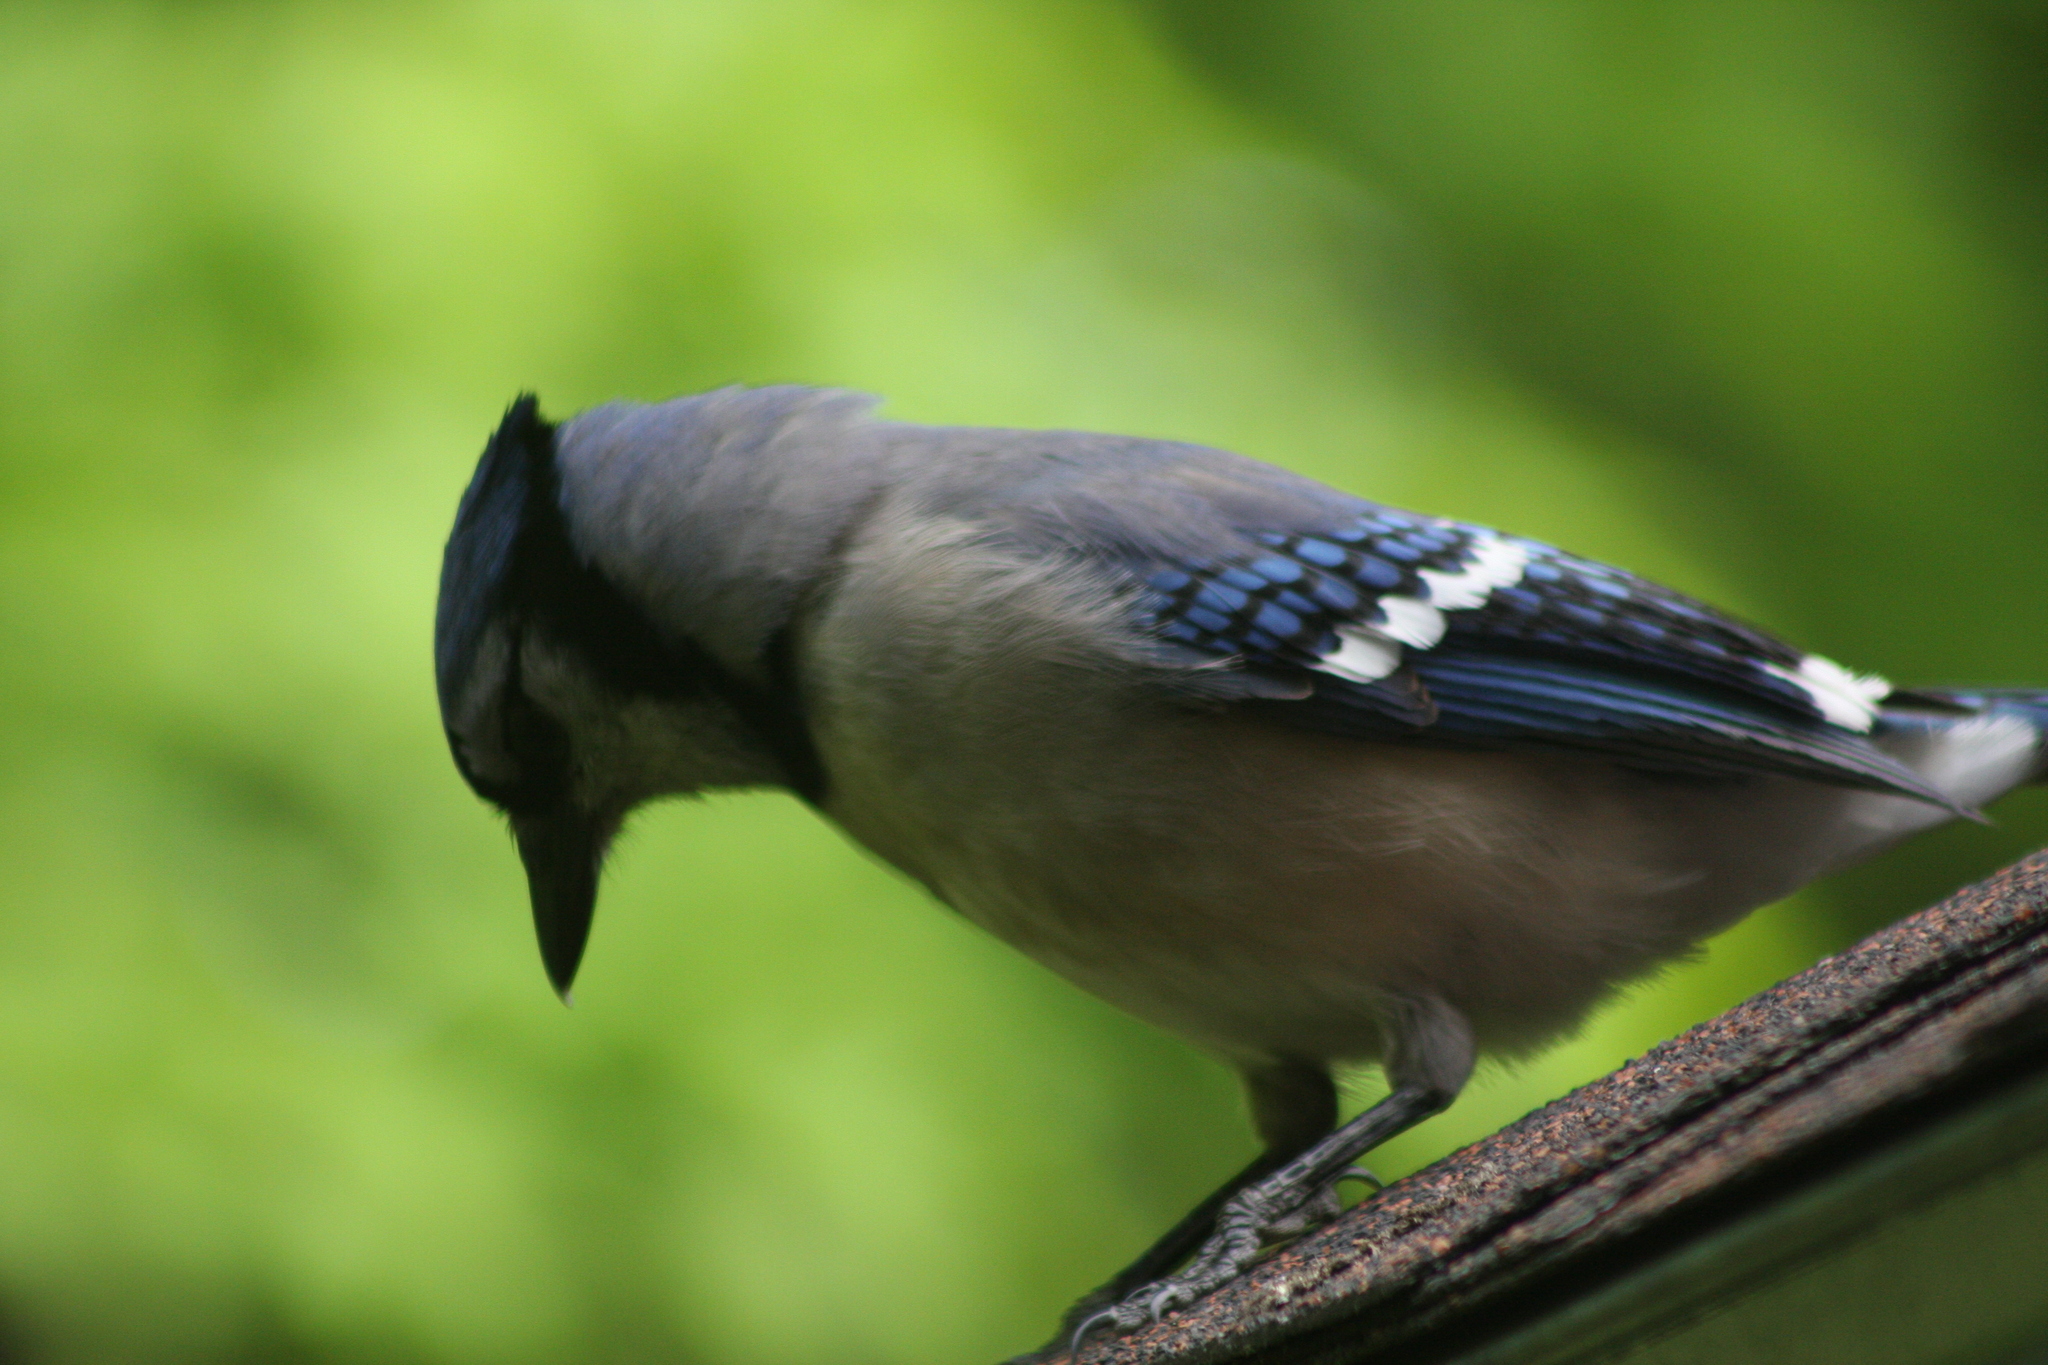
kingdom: Animalia
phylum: Chordata
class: Aves
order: Passeriformes
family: Corvidae
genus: Cyanocitta
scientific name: Cyanocitta cristata
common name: Blue jay
